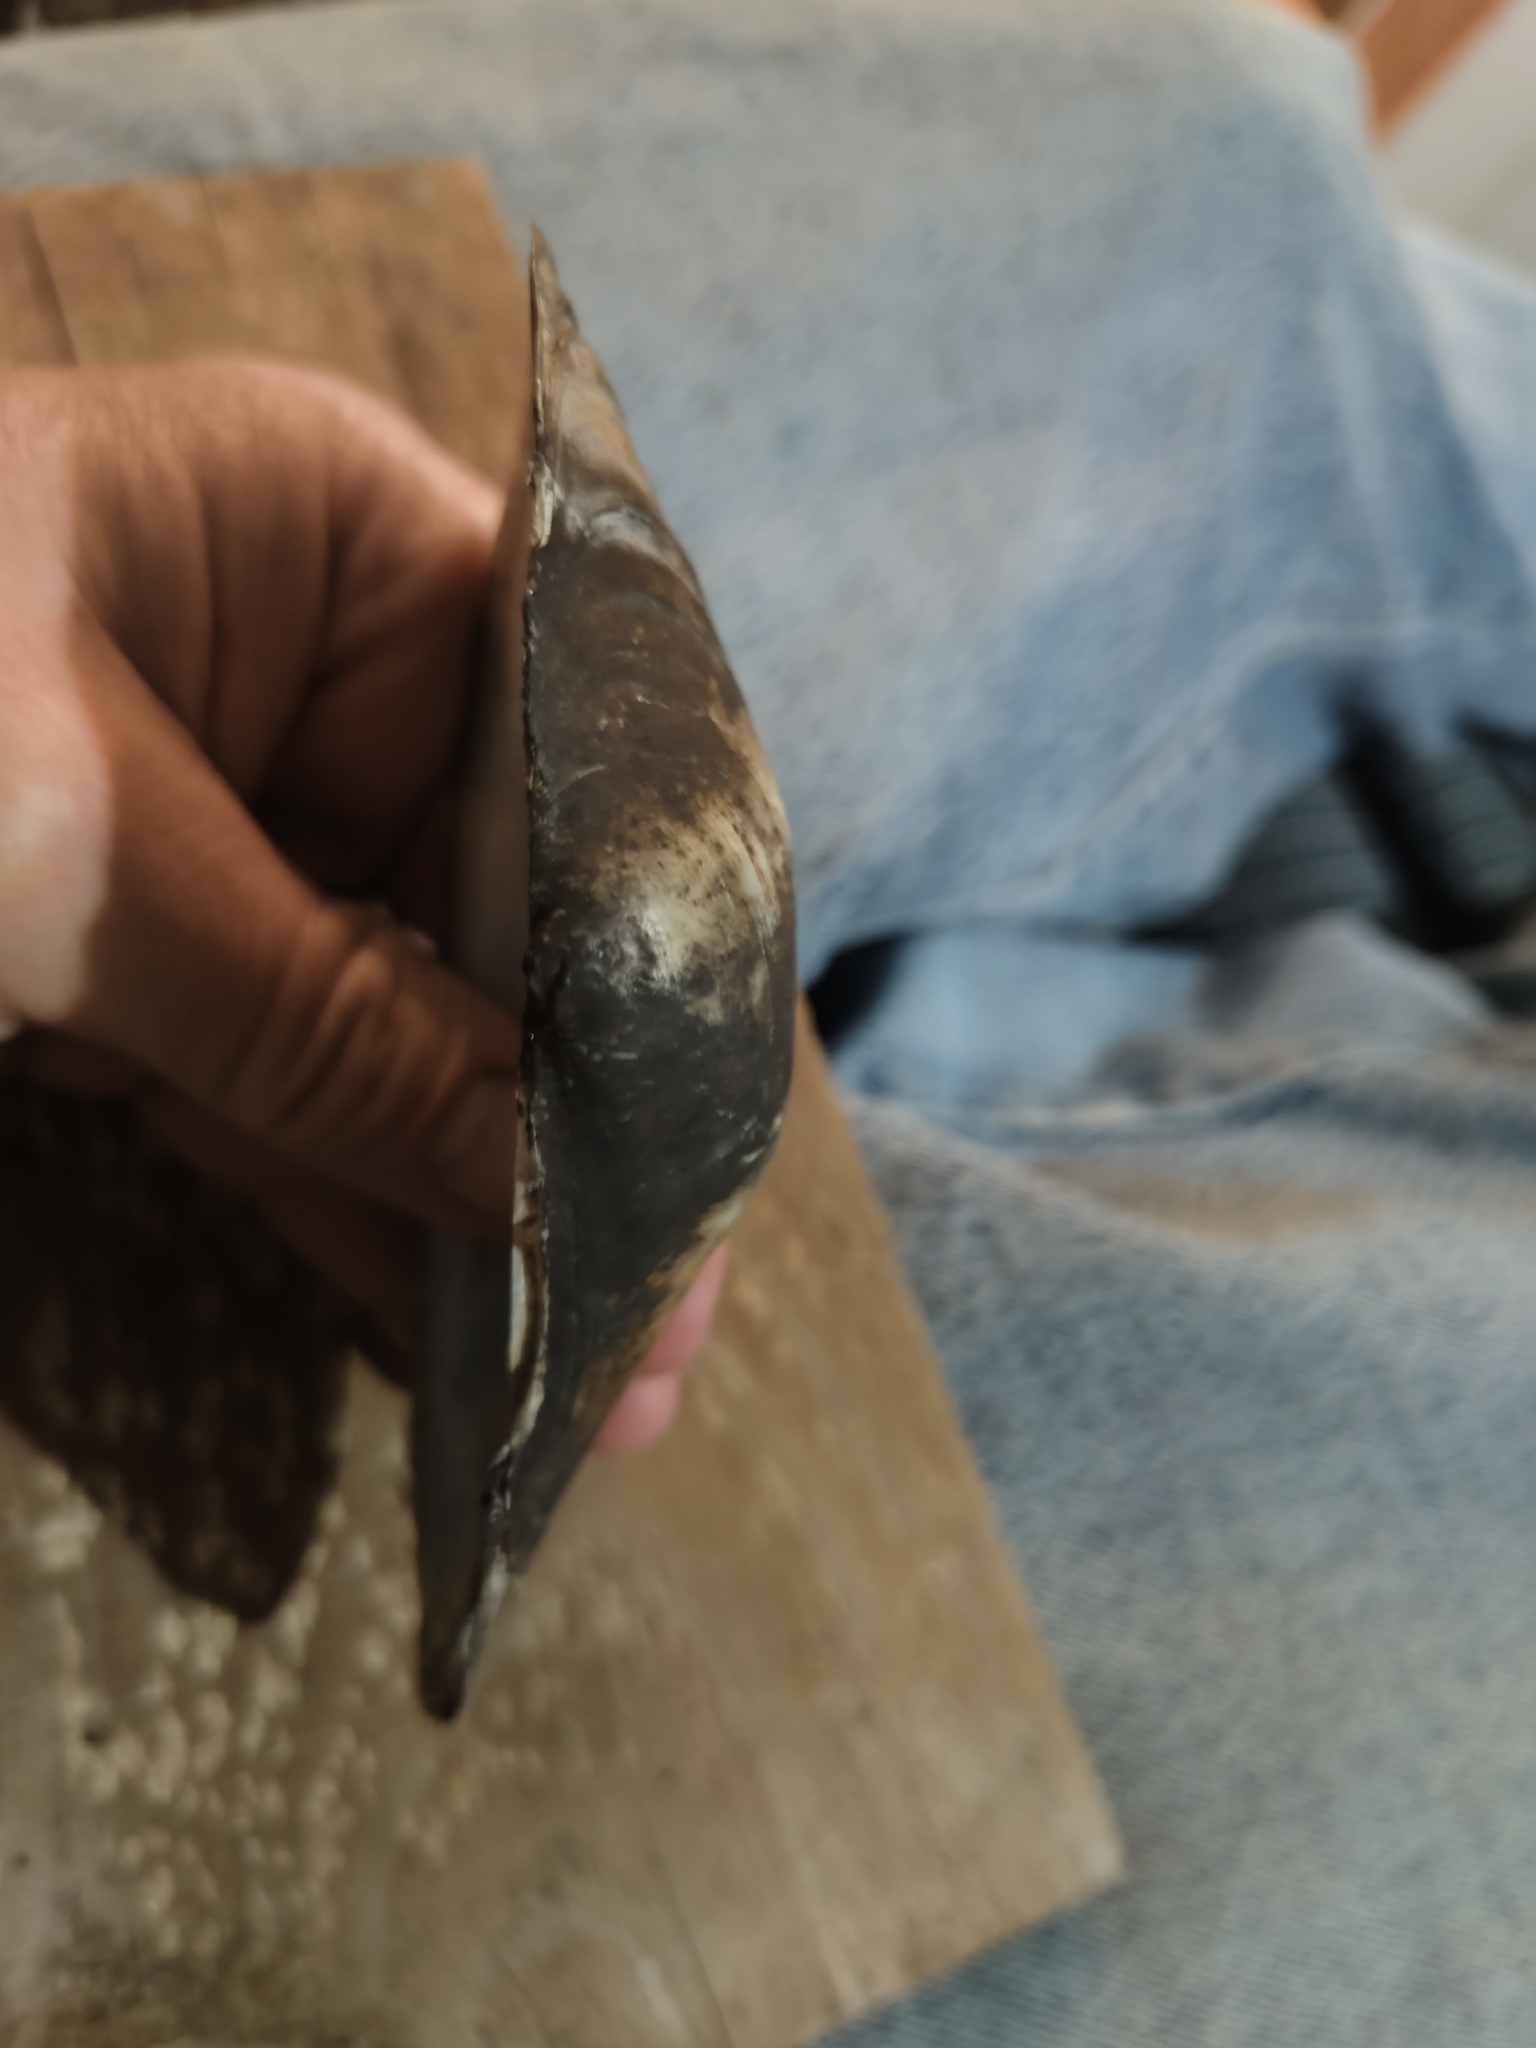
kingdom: Animalia
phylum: Mollusca
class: Bivalvia
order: Unionida
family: Unionidae
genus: Pyganodon
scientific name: Pyganodon grandis
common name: Giant floater
